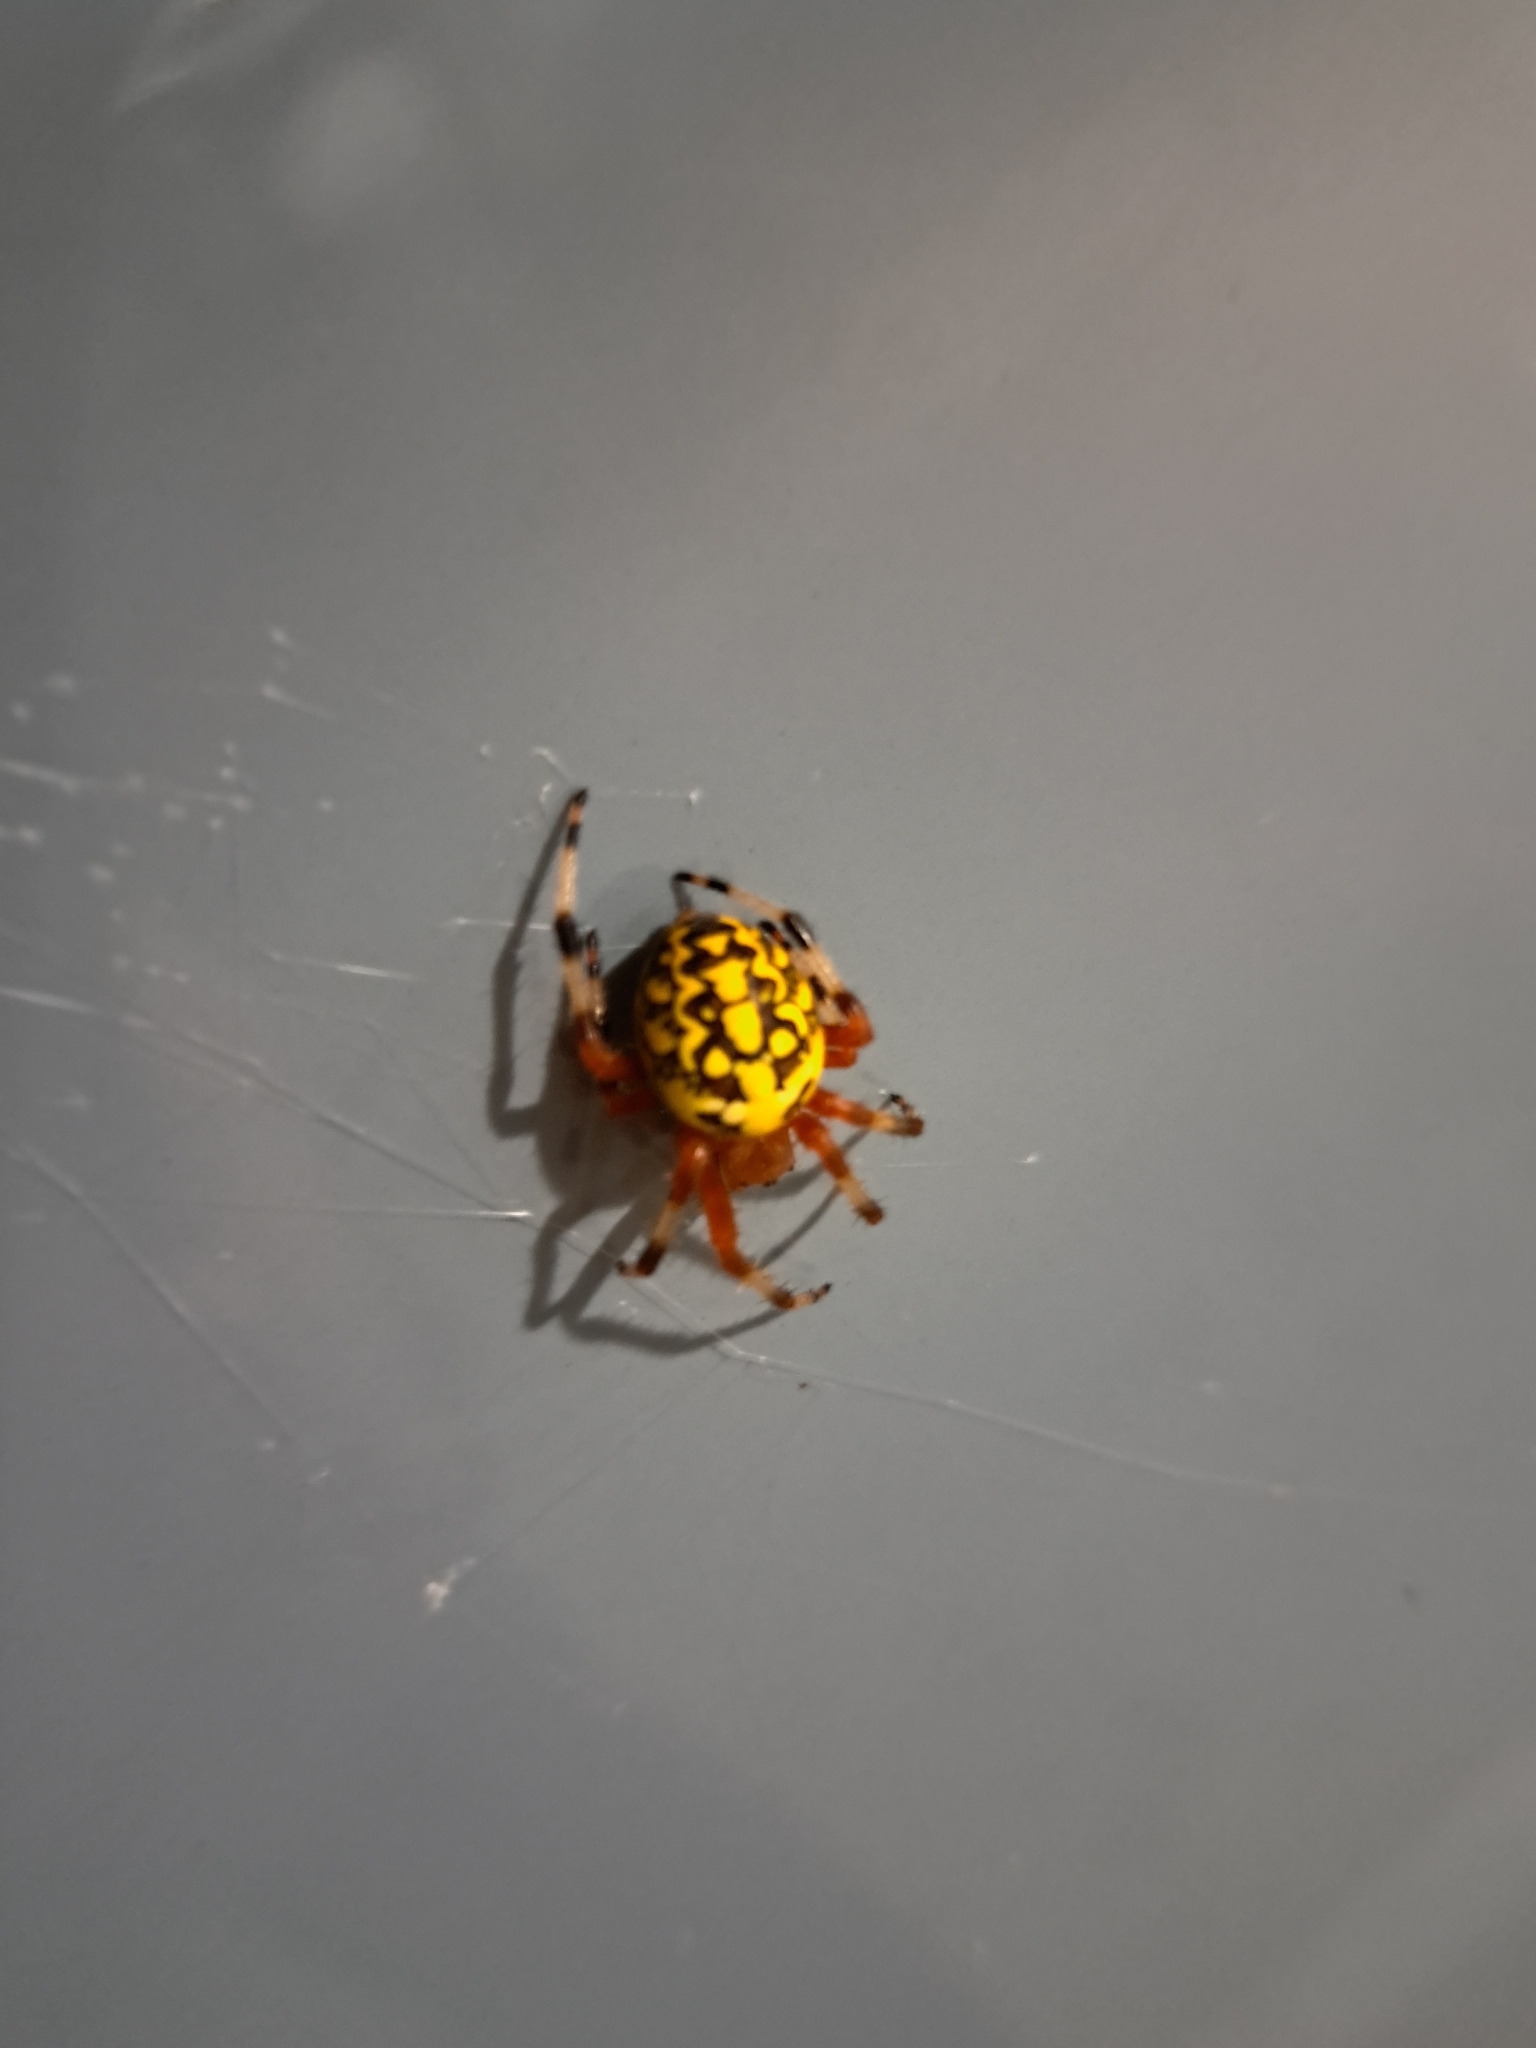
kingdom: Animalia
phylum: Arthropoda
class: Arachnida
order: Araneae
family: Araneidae
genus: Araneus
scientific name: Araneus marmoreus
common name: Marbled orbweaver
